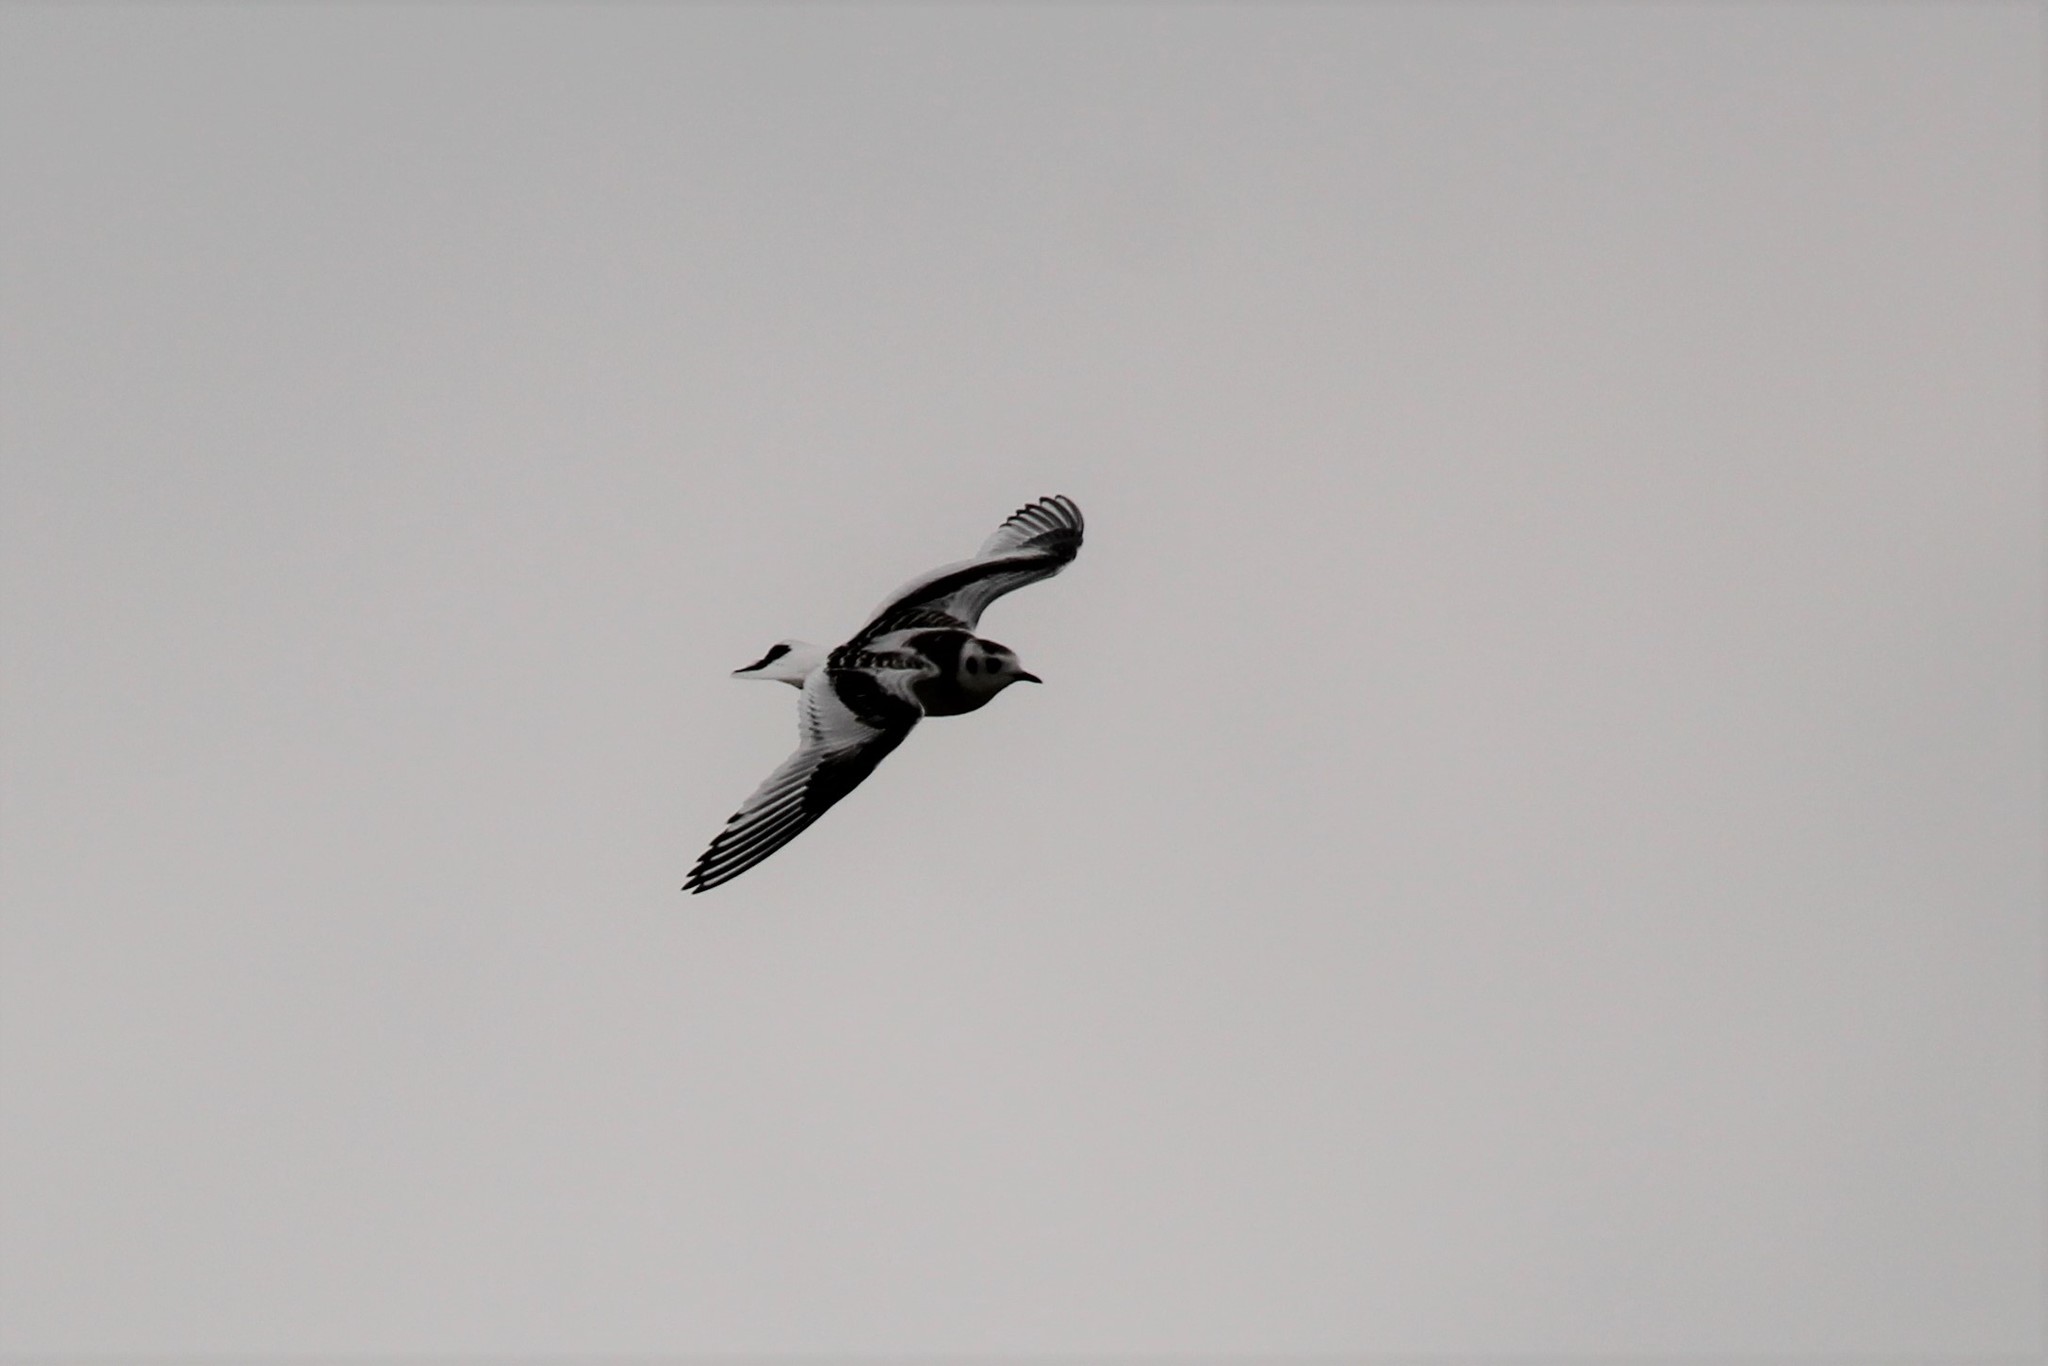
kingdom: Animalia
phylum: Chordata
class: Aves
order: Charadriiformes
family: Laridae
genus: Hydrocoloeus
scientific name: Hydrocoloeus minutus
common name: Little gull
